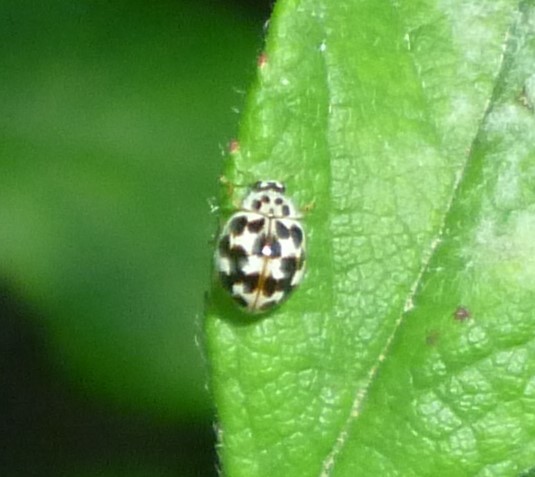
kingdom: Animalia
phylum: Arthropoda
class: Insecta
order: Coleoptera
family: Coccinellidae
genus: Psyllobora
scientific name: Psyllobora vigintimaculata
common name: Ladybird beetle
